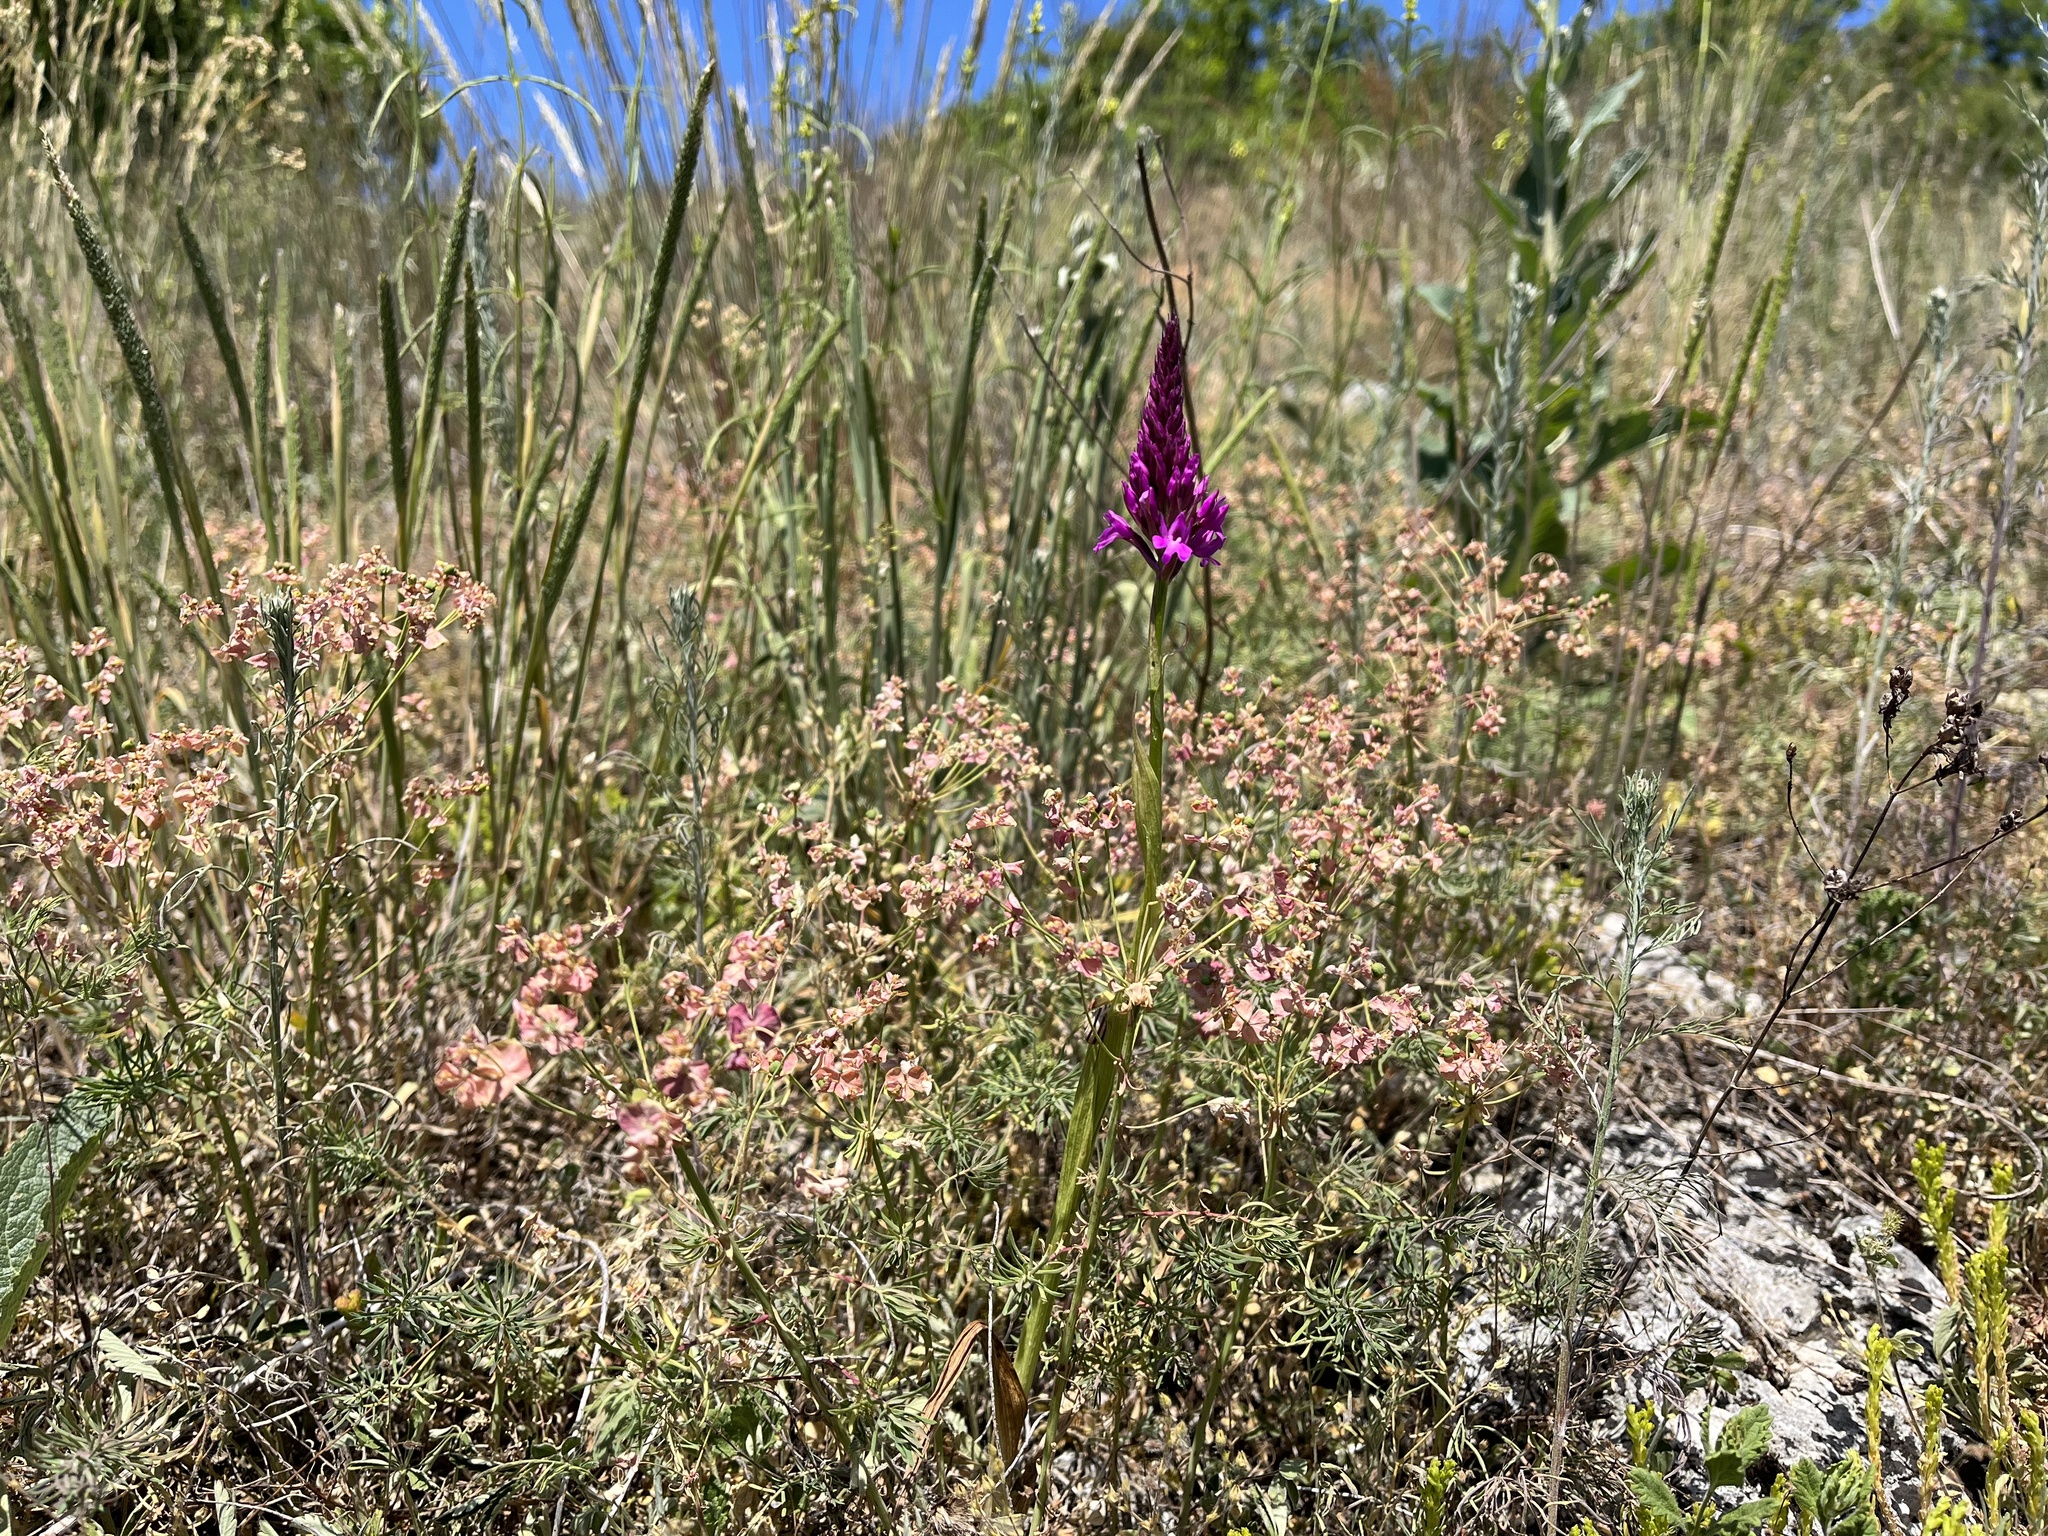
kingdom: Plantae
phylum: Tracheophyta
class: Liliopsida
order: Asparagales
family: Orchidaceae
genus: Anacamptis
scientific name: Anacamptis pyramidalis
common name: Pyramidal orchid
